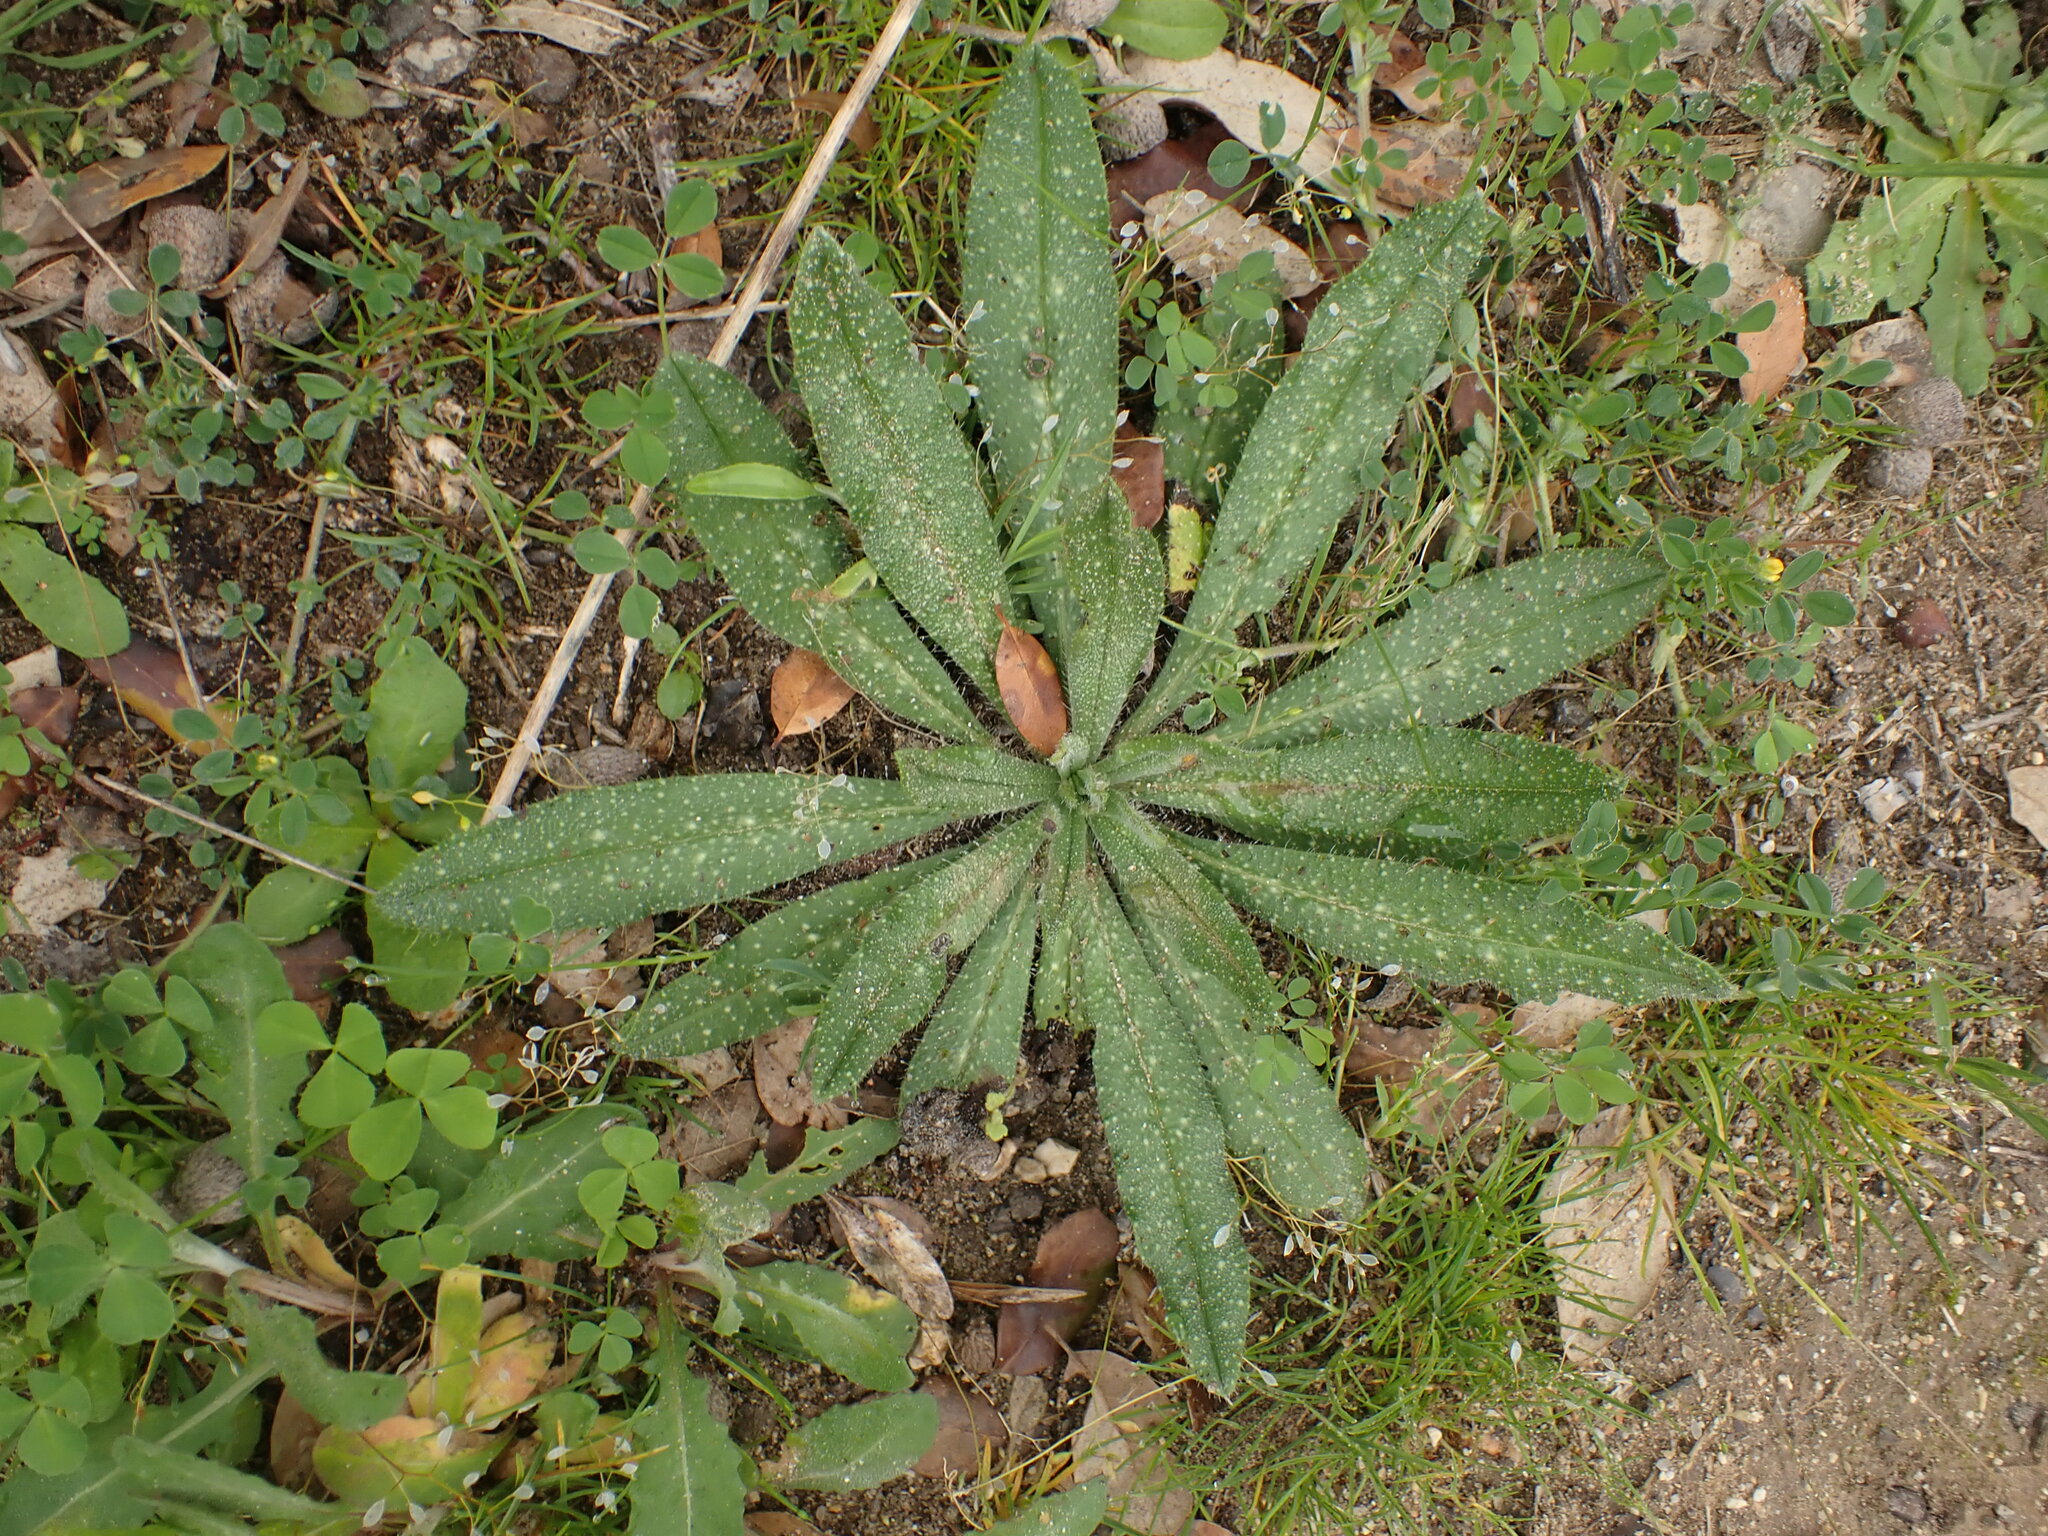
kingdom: Plantae
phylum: Tracheophyta
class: Magnoliopsida
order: Boraginales
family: Boraginaceae
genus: Echium
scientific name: Echium vulgare
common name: Common viper's bugloss
